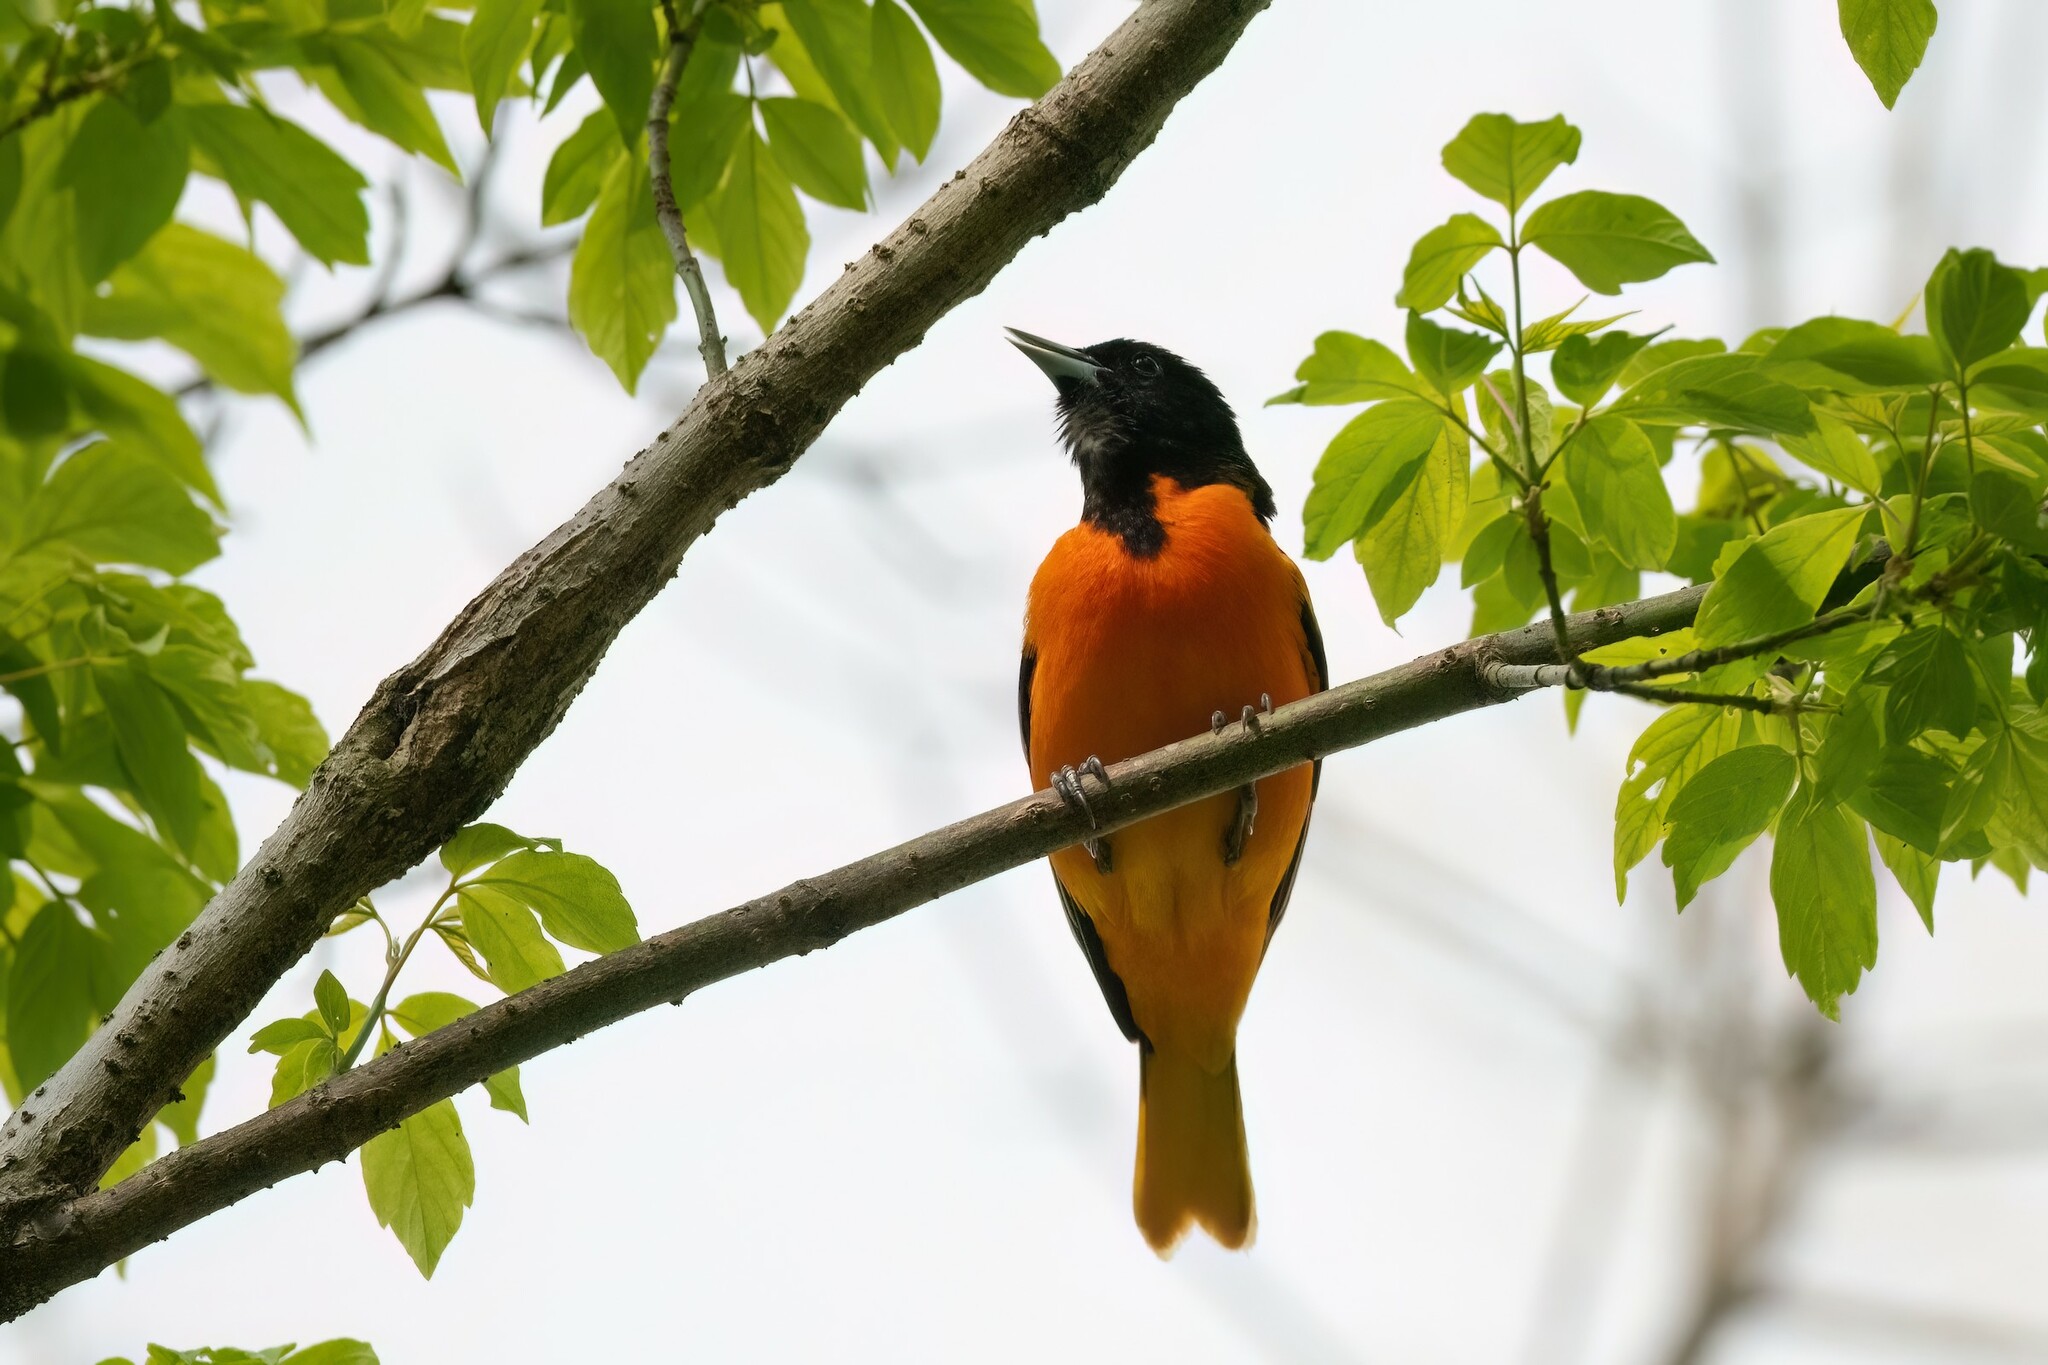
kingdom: Animalia
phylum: Chordata
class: Aves
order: Passeriformes
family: Icteridae
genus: Icterus
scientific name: Icterus galbula
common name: Baltimore oriole
